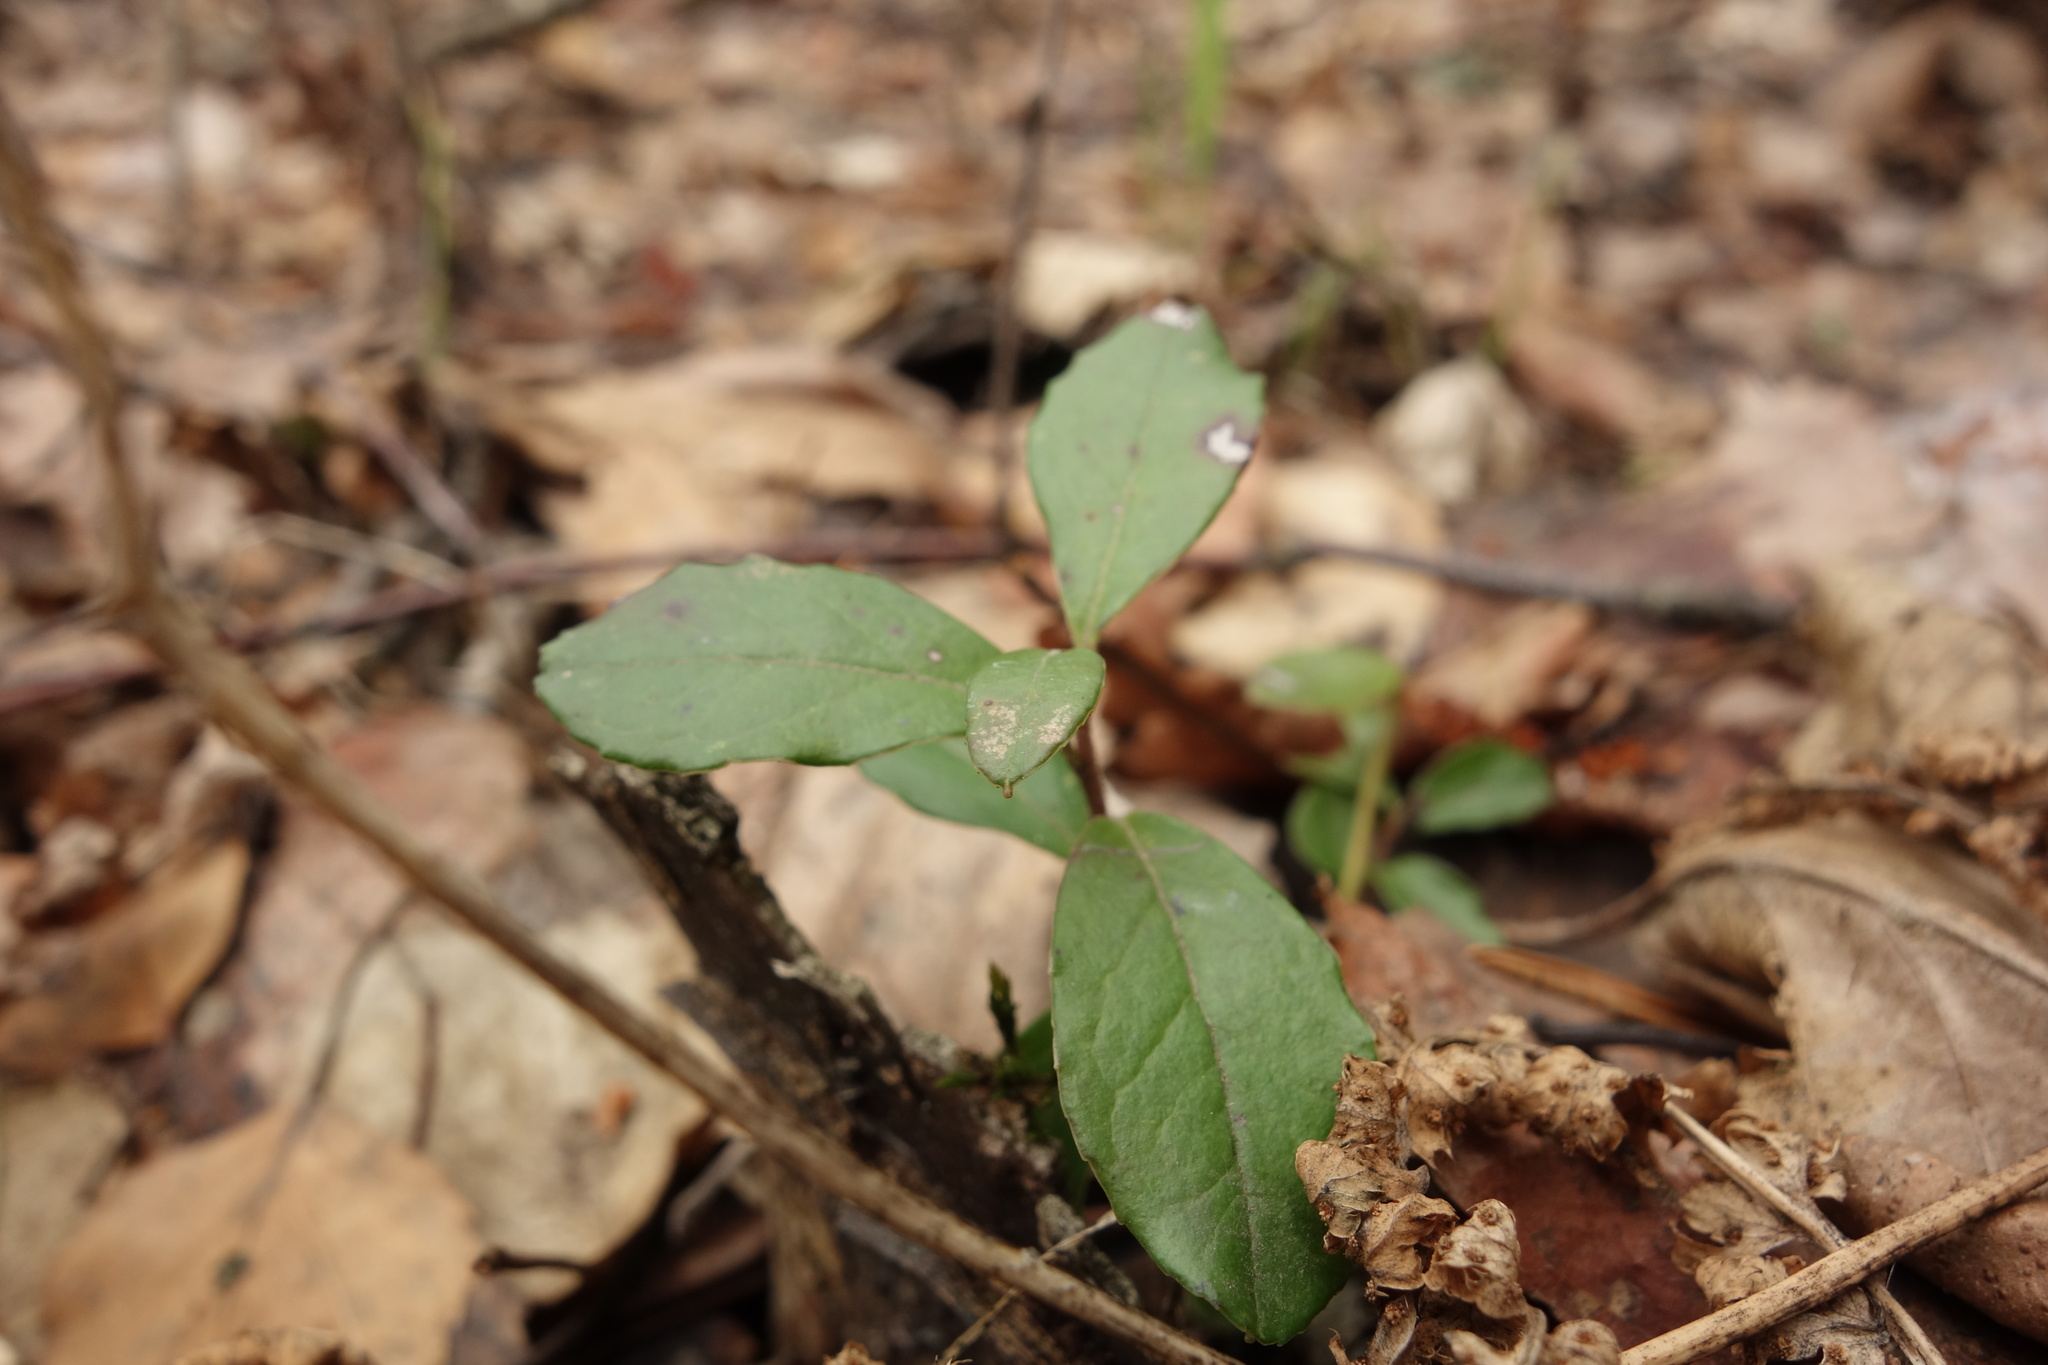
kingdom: Plantae
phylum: Tracheophyta
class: Magnoliopsida
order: Ericales
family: Ericaceae
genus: Vaccinium
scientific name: Vaccinium vitis-idaea
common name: Cowberry
